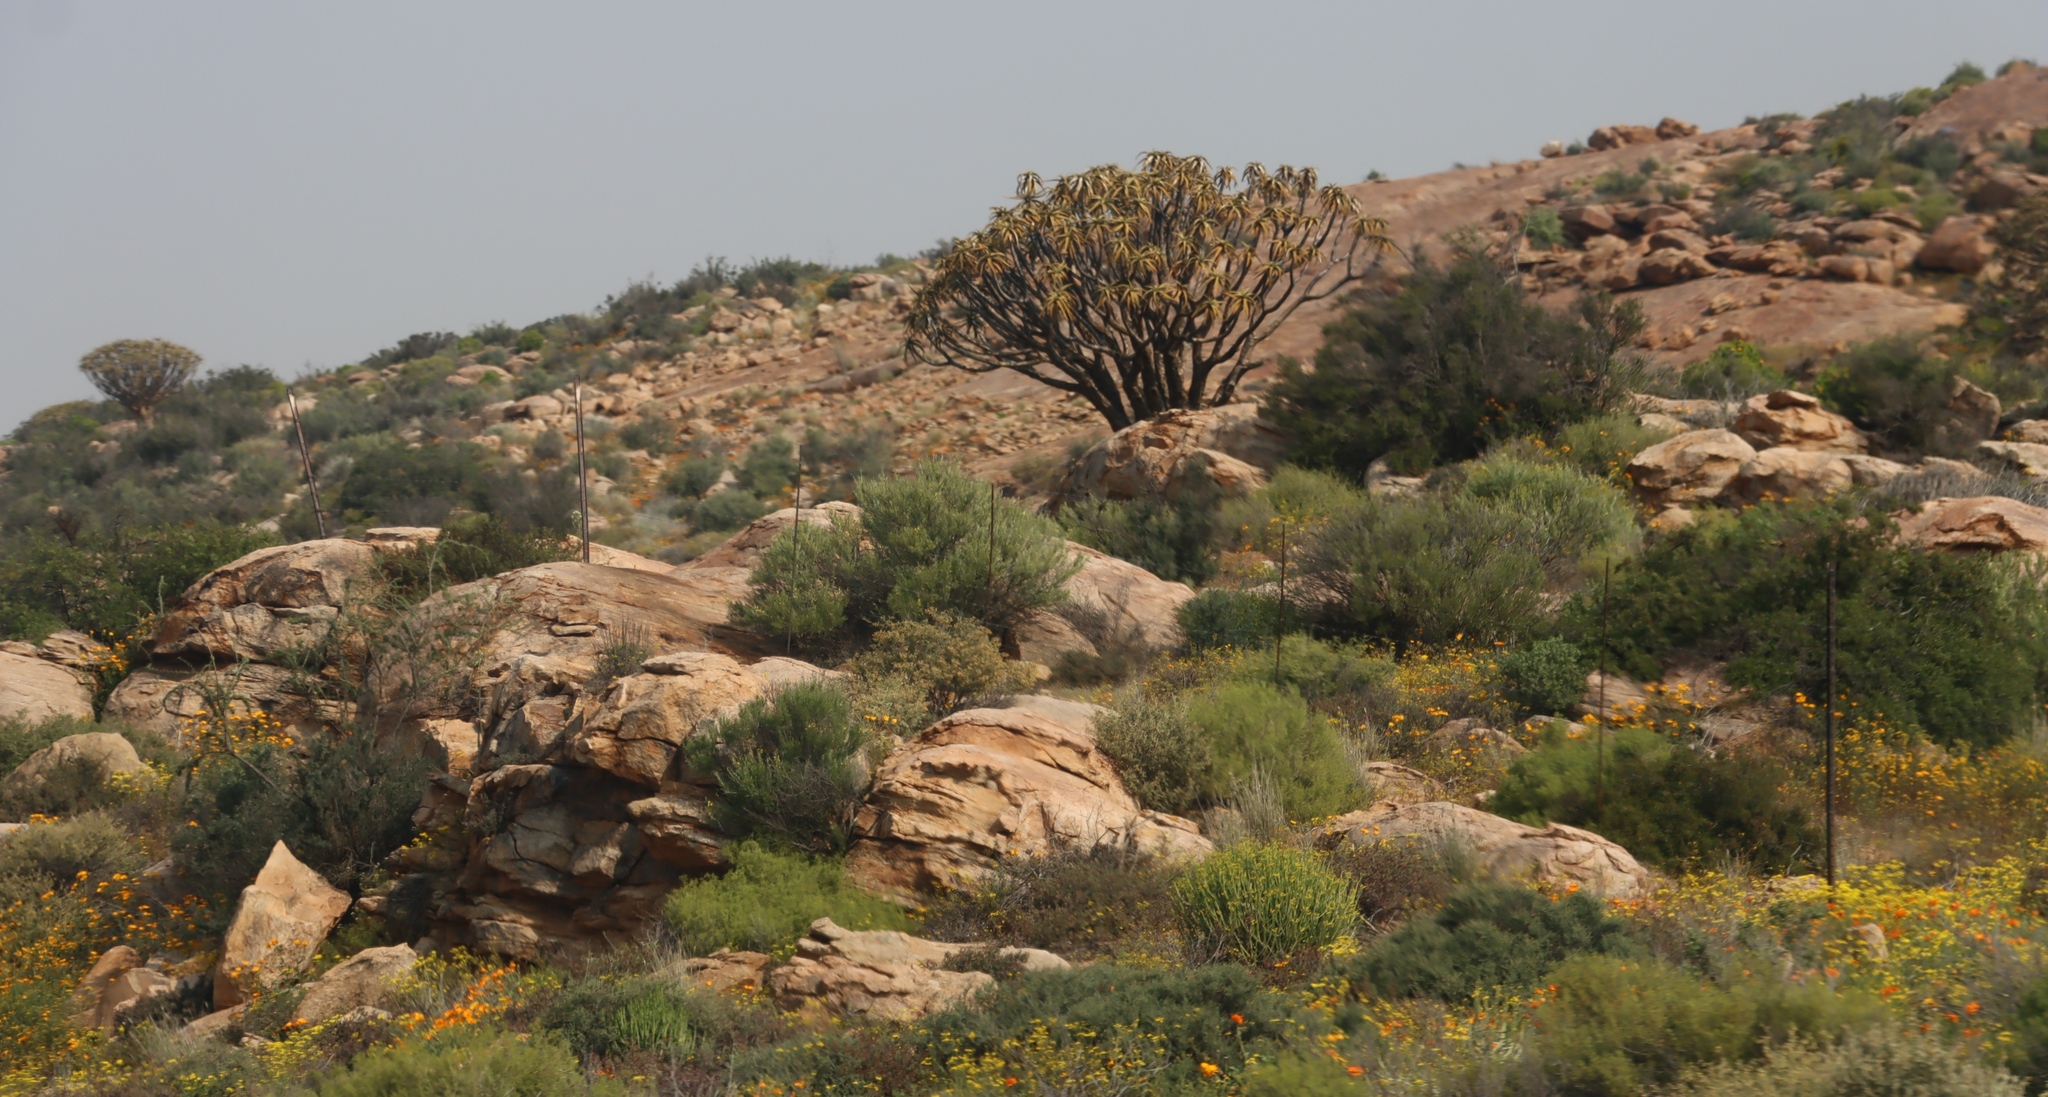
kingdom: Plantae
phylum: Tracheophyta
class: Liliopsida
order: Asparagales
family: Asphodelaceae
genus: Aloidendron
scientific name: Aloidendron dichotomum
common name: Quiver tree
